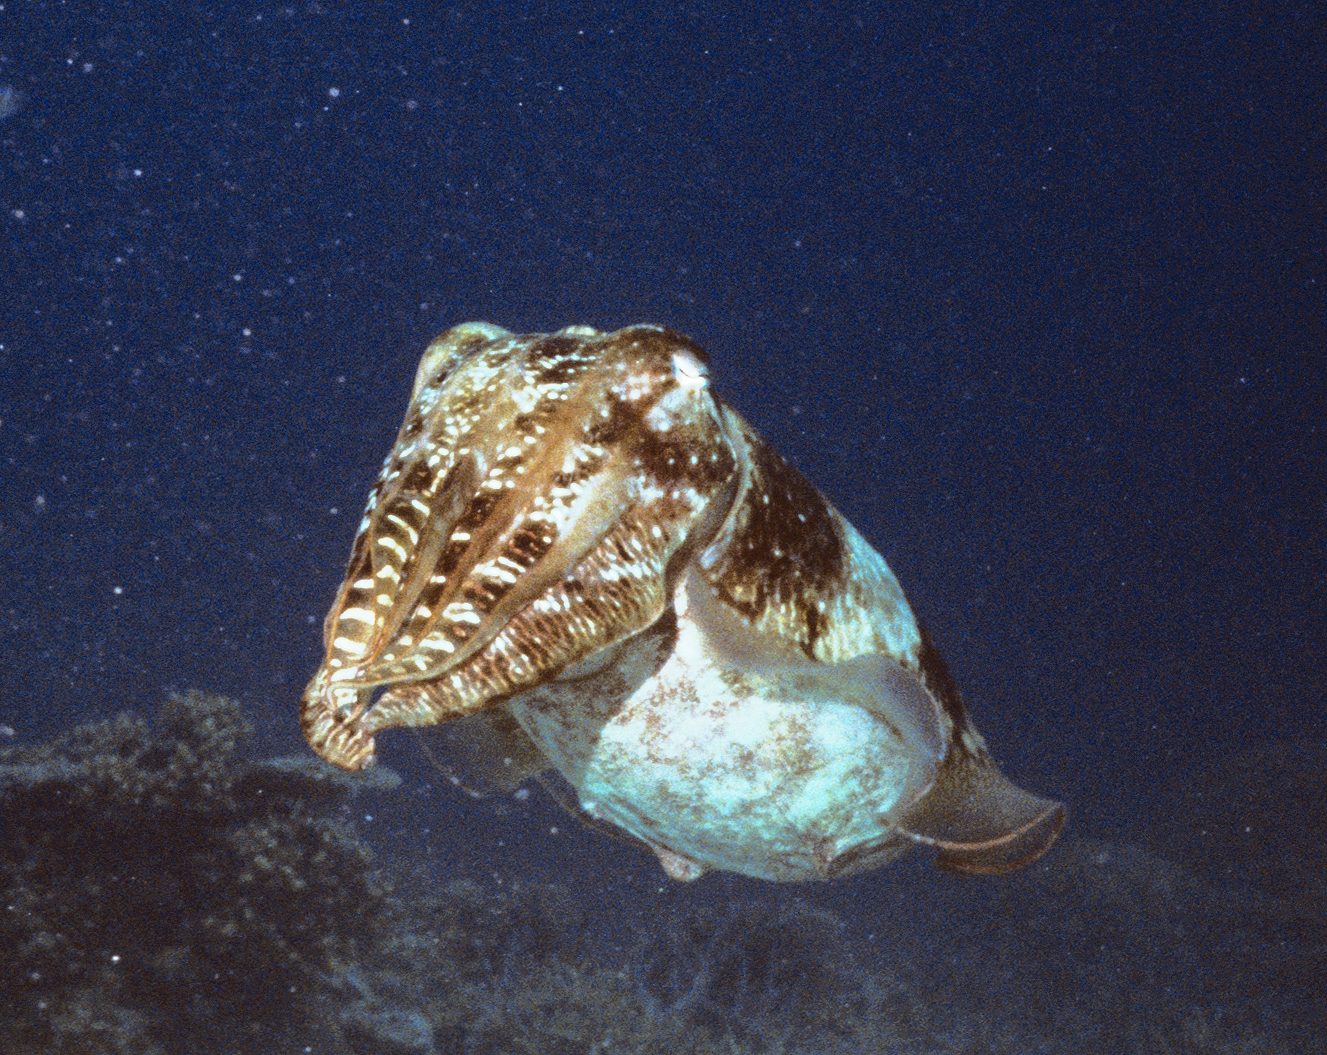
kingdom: Animalia
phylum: Mollusca
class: Cephalopoda
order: Sepiida
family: Sepiidae
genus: Ascarosepion
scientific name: Ascarosepion latimanus
